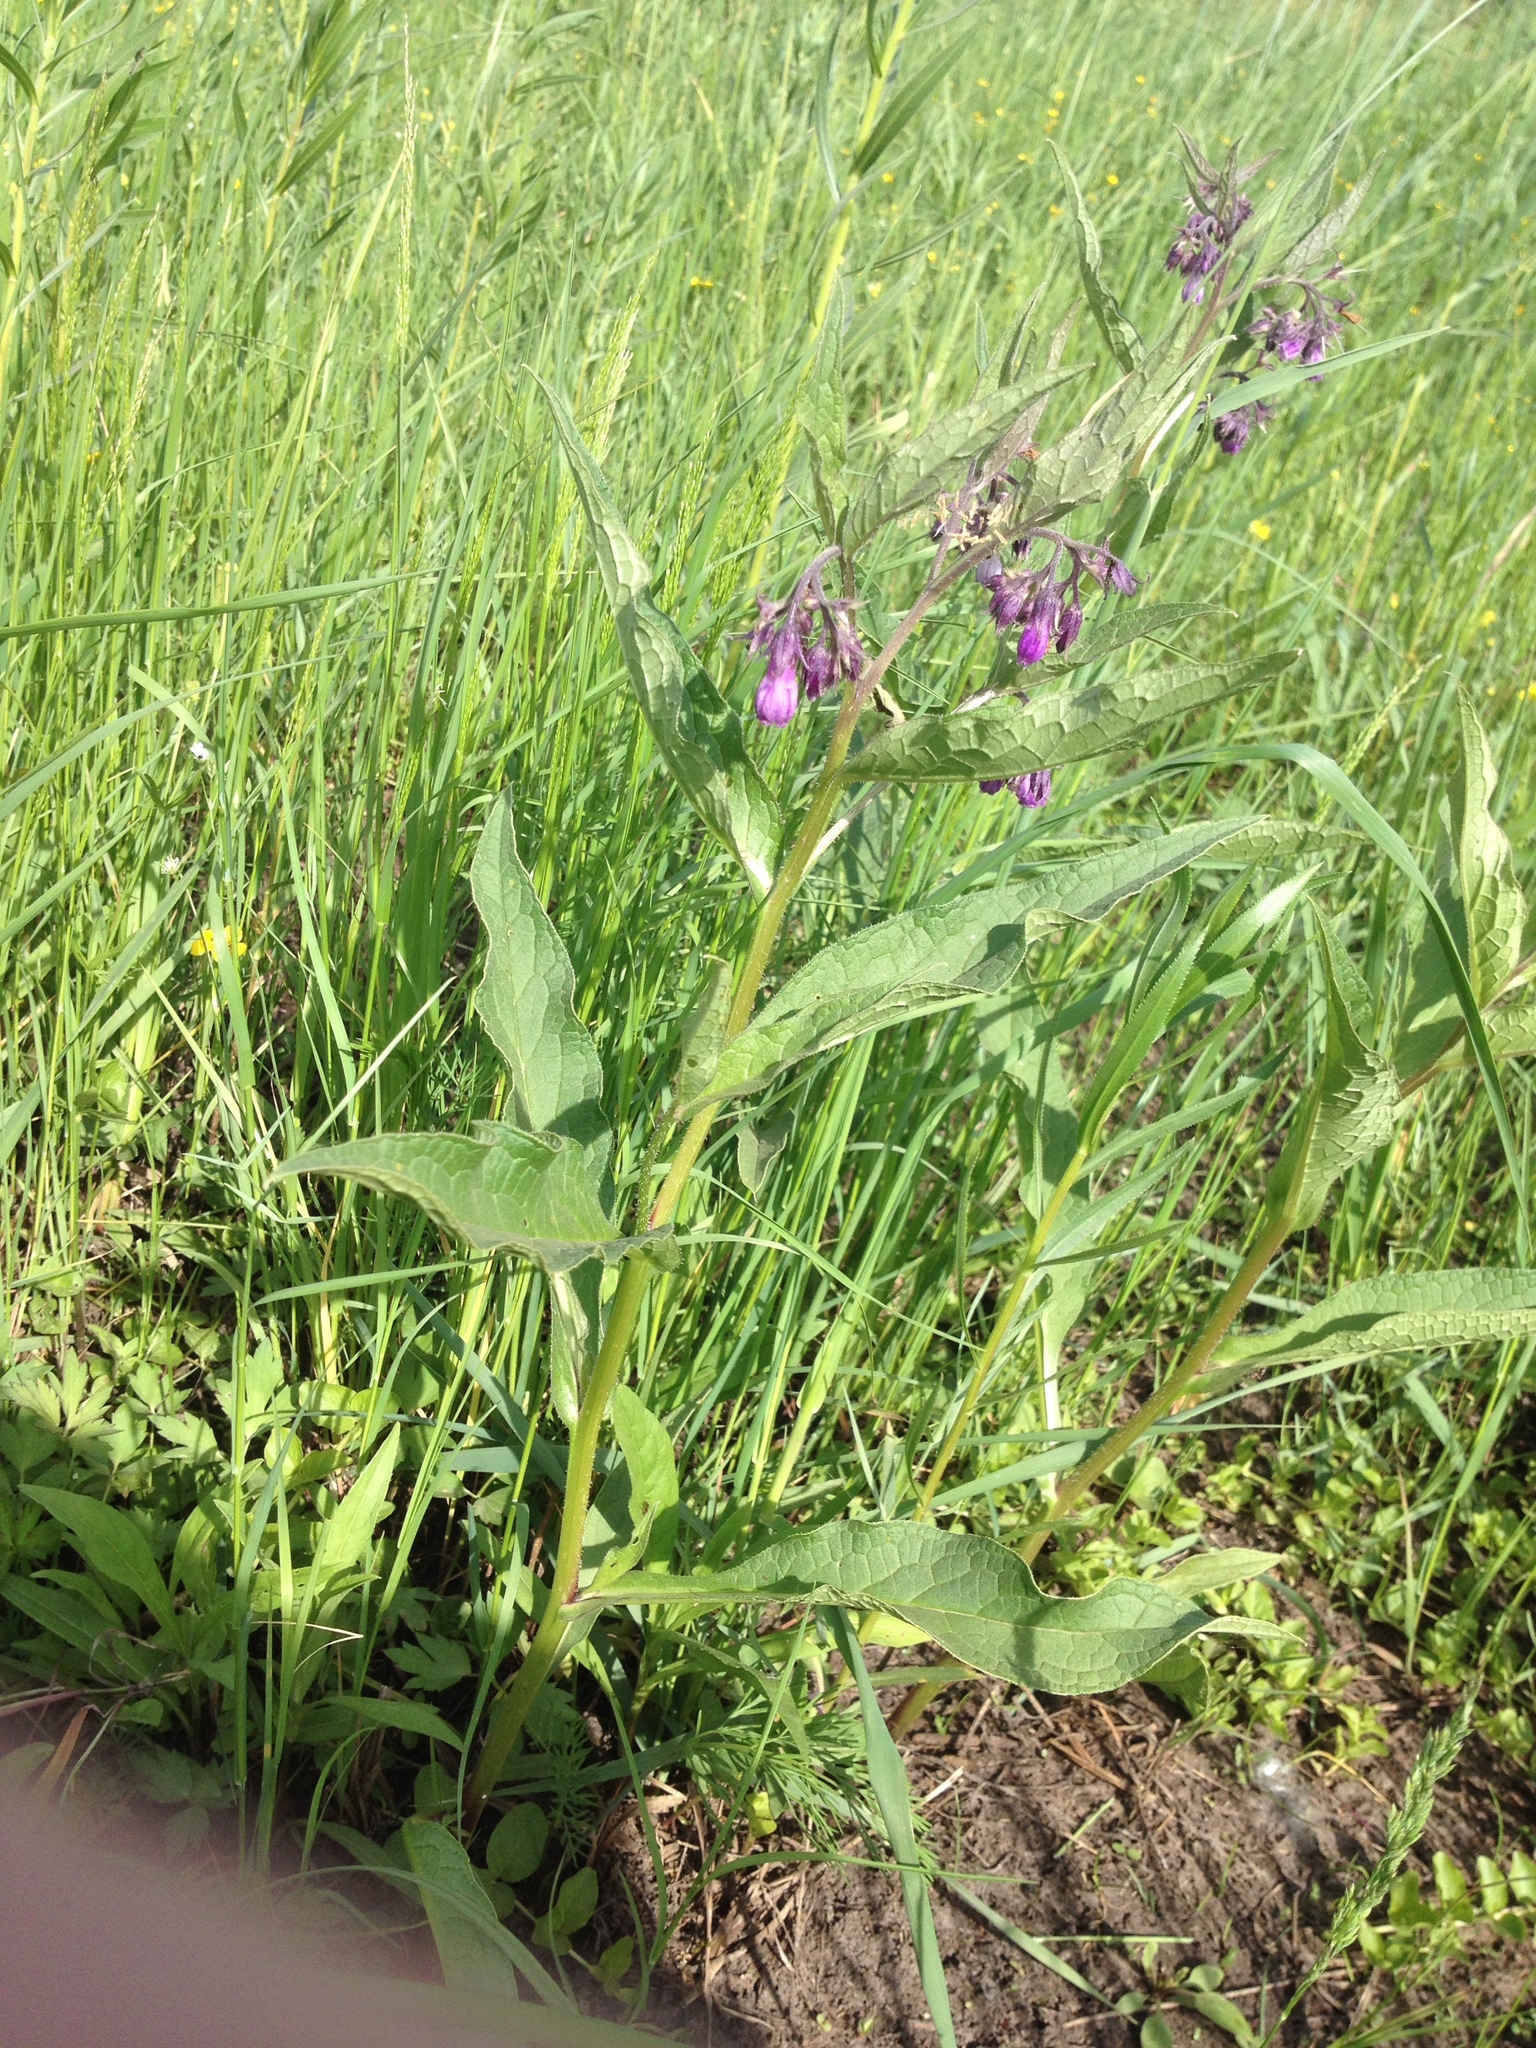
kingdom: Plantae
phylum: Tracheophyta
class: Magnoliopsida
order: Boraginales
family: Boraginaceae
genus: Symphytum
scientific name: Symphytum officinale
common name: Common comfrey
